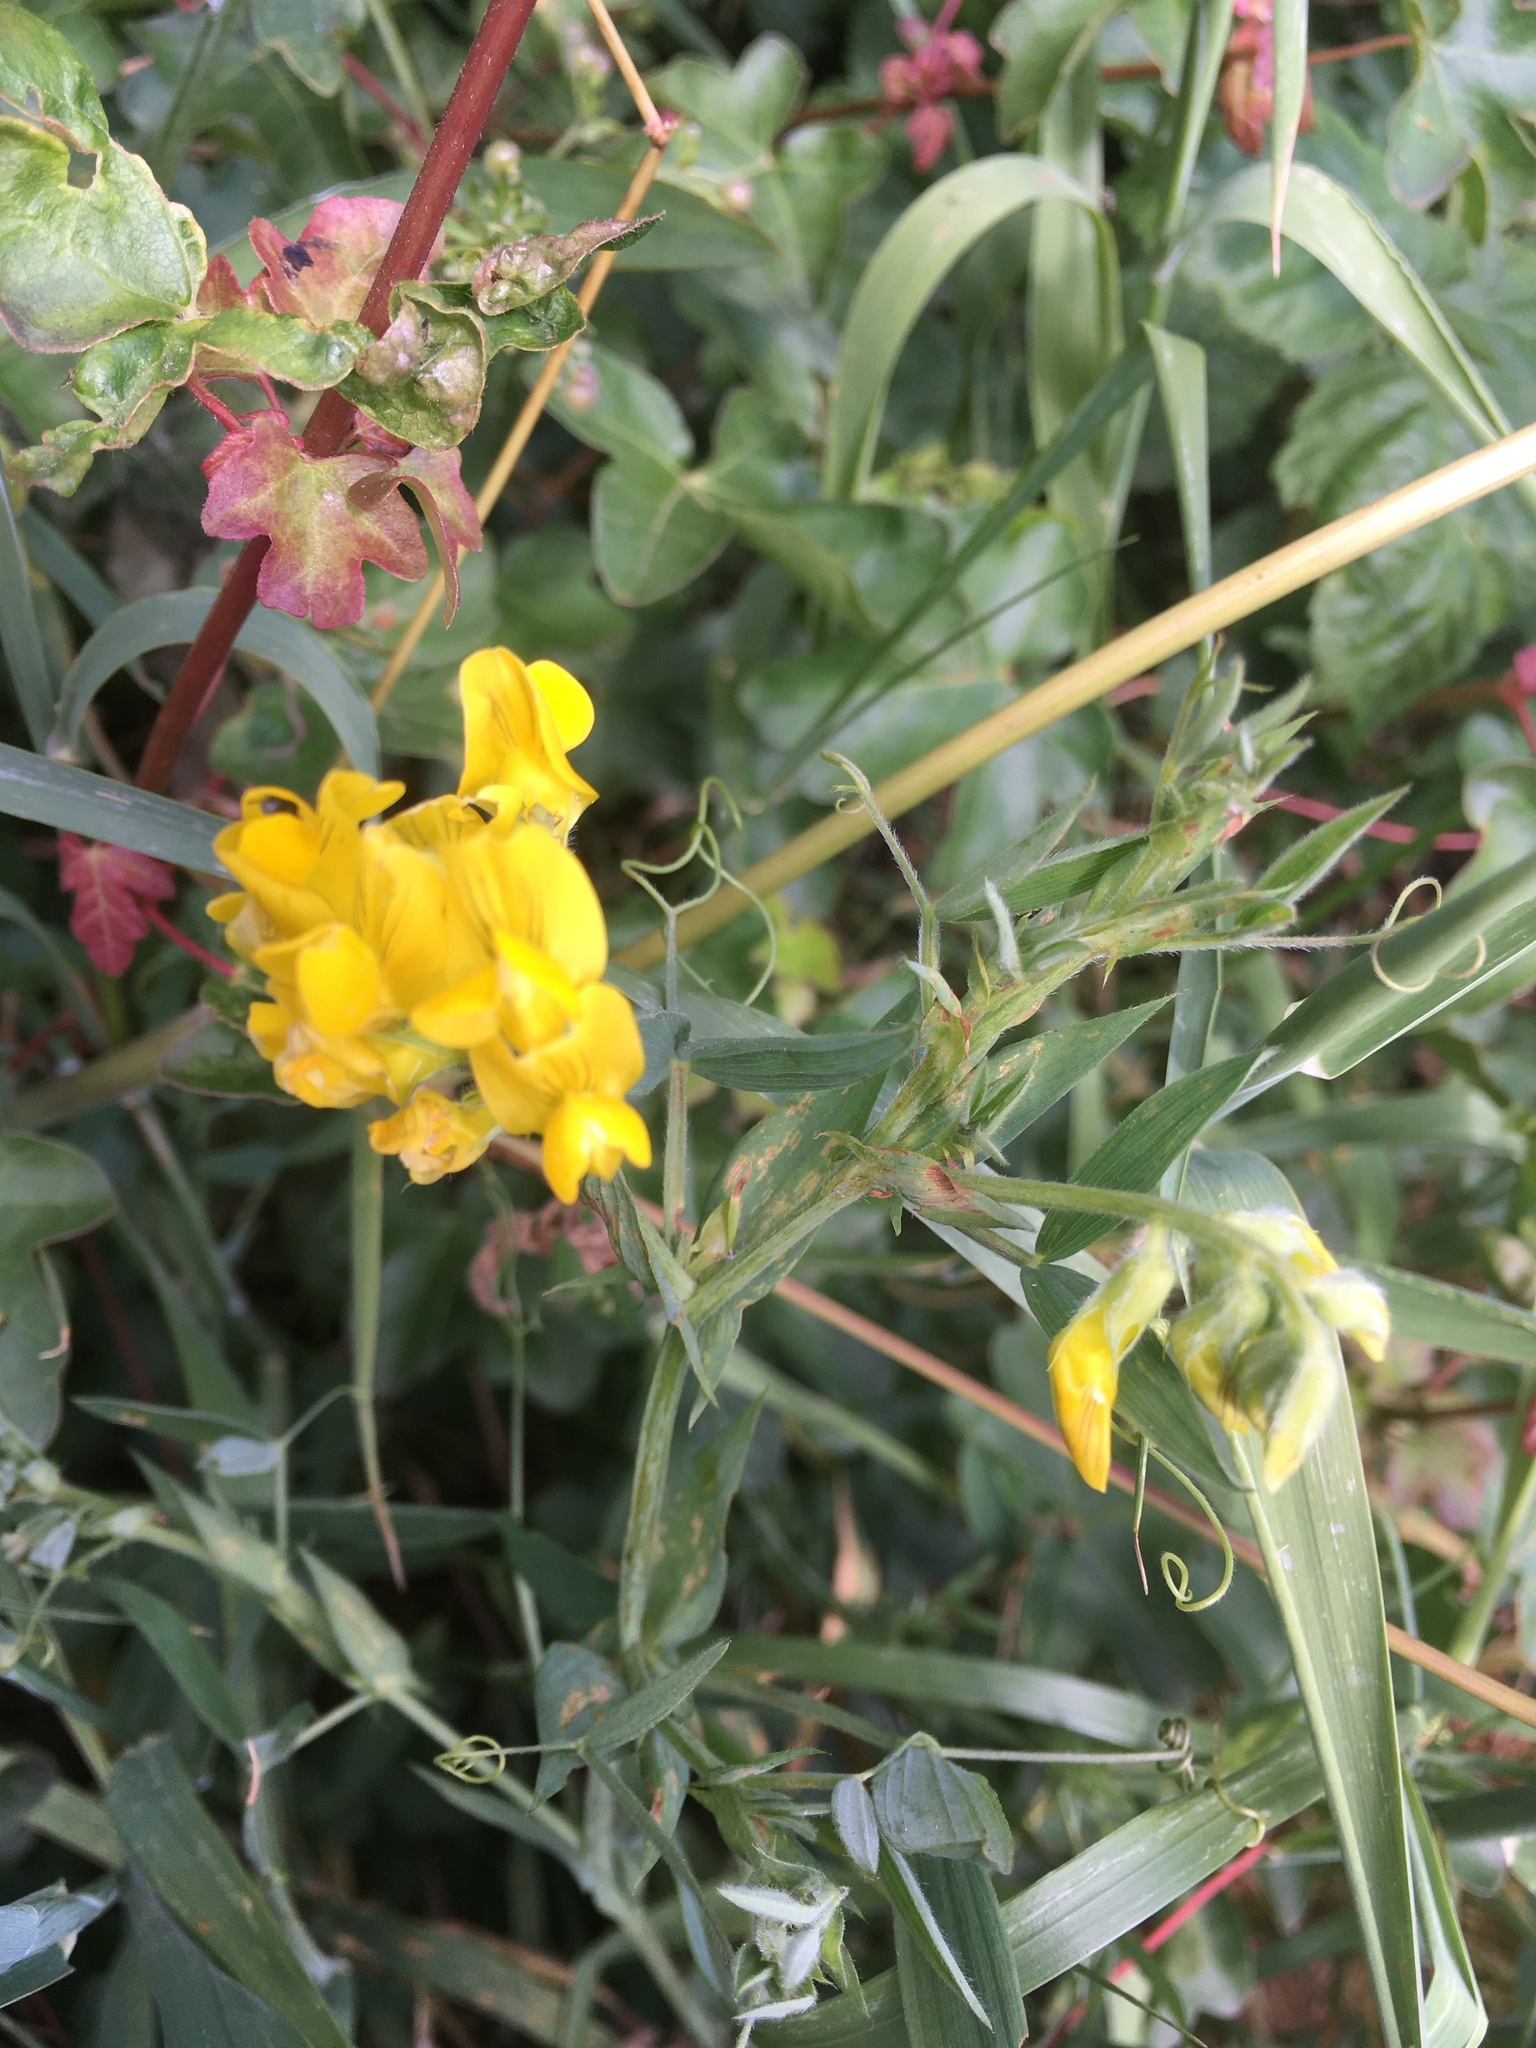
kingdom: Plantae
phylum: Tracheophyta
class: Magnoliopsida
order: Fabales
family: Fabaceae
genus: Lathyrus
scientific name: Lathyrus pratensis
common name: Meadow vetchling
